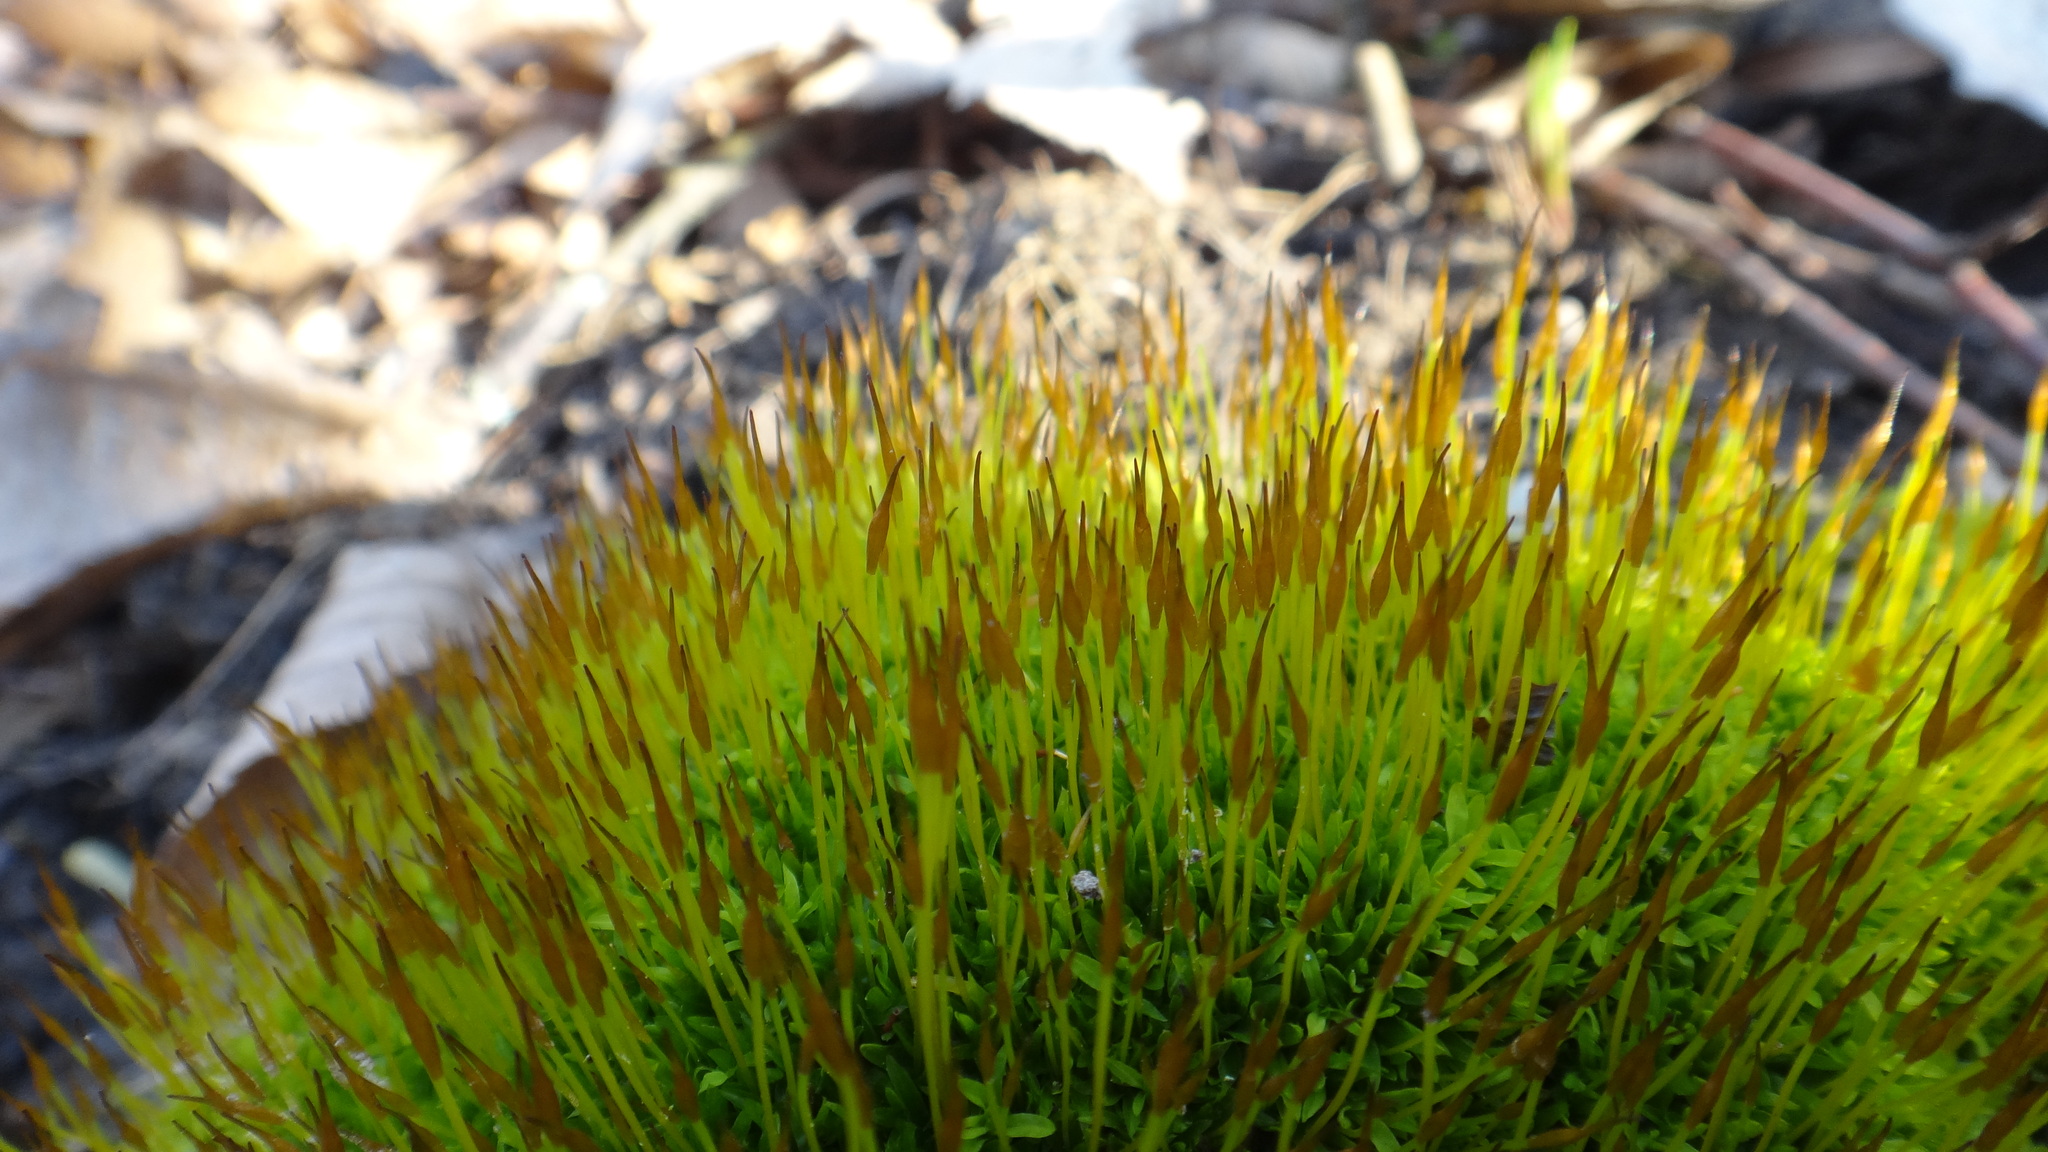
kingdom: Plantae
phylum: Bryophyta
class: Bryopsida
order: Dicranales
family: Ditrichaceae
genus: Ceratodon
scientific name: Ceratodon purpureus
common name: Redshank
